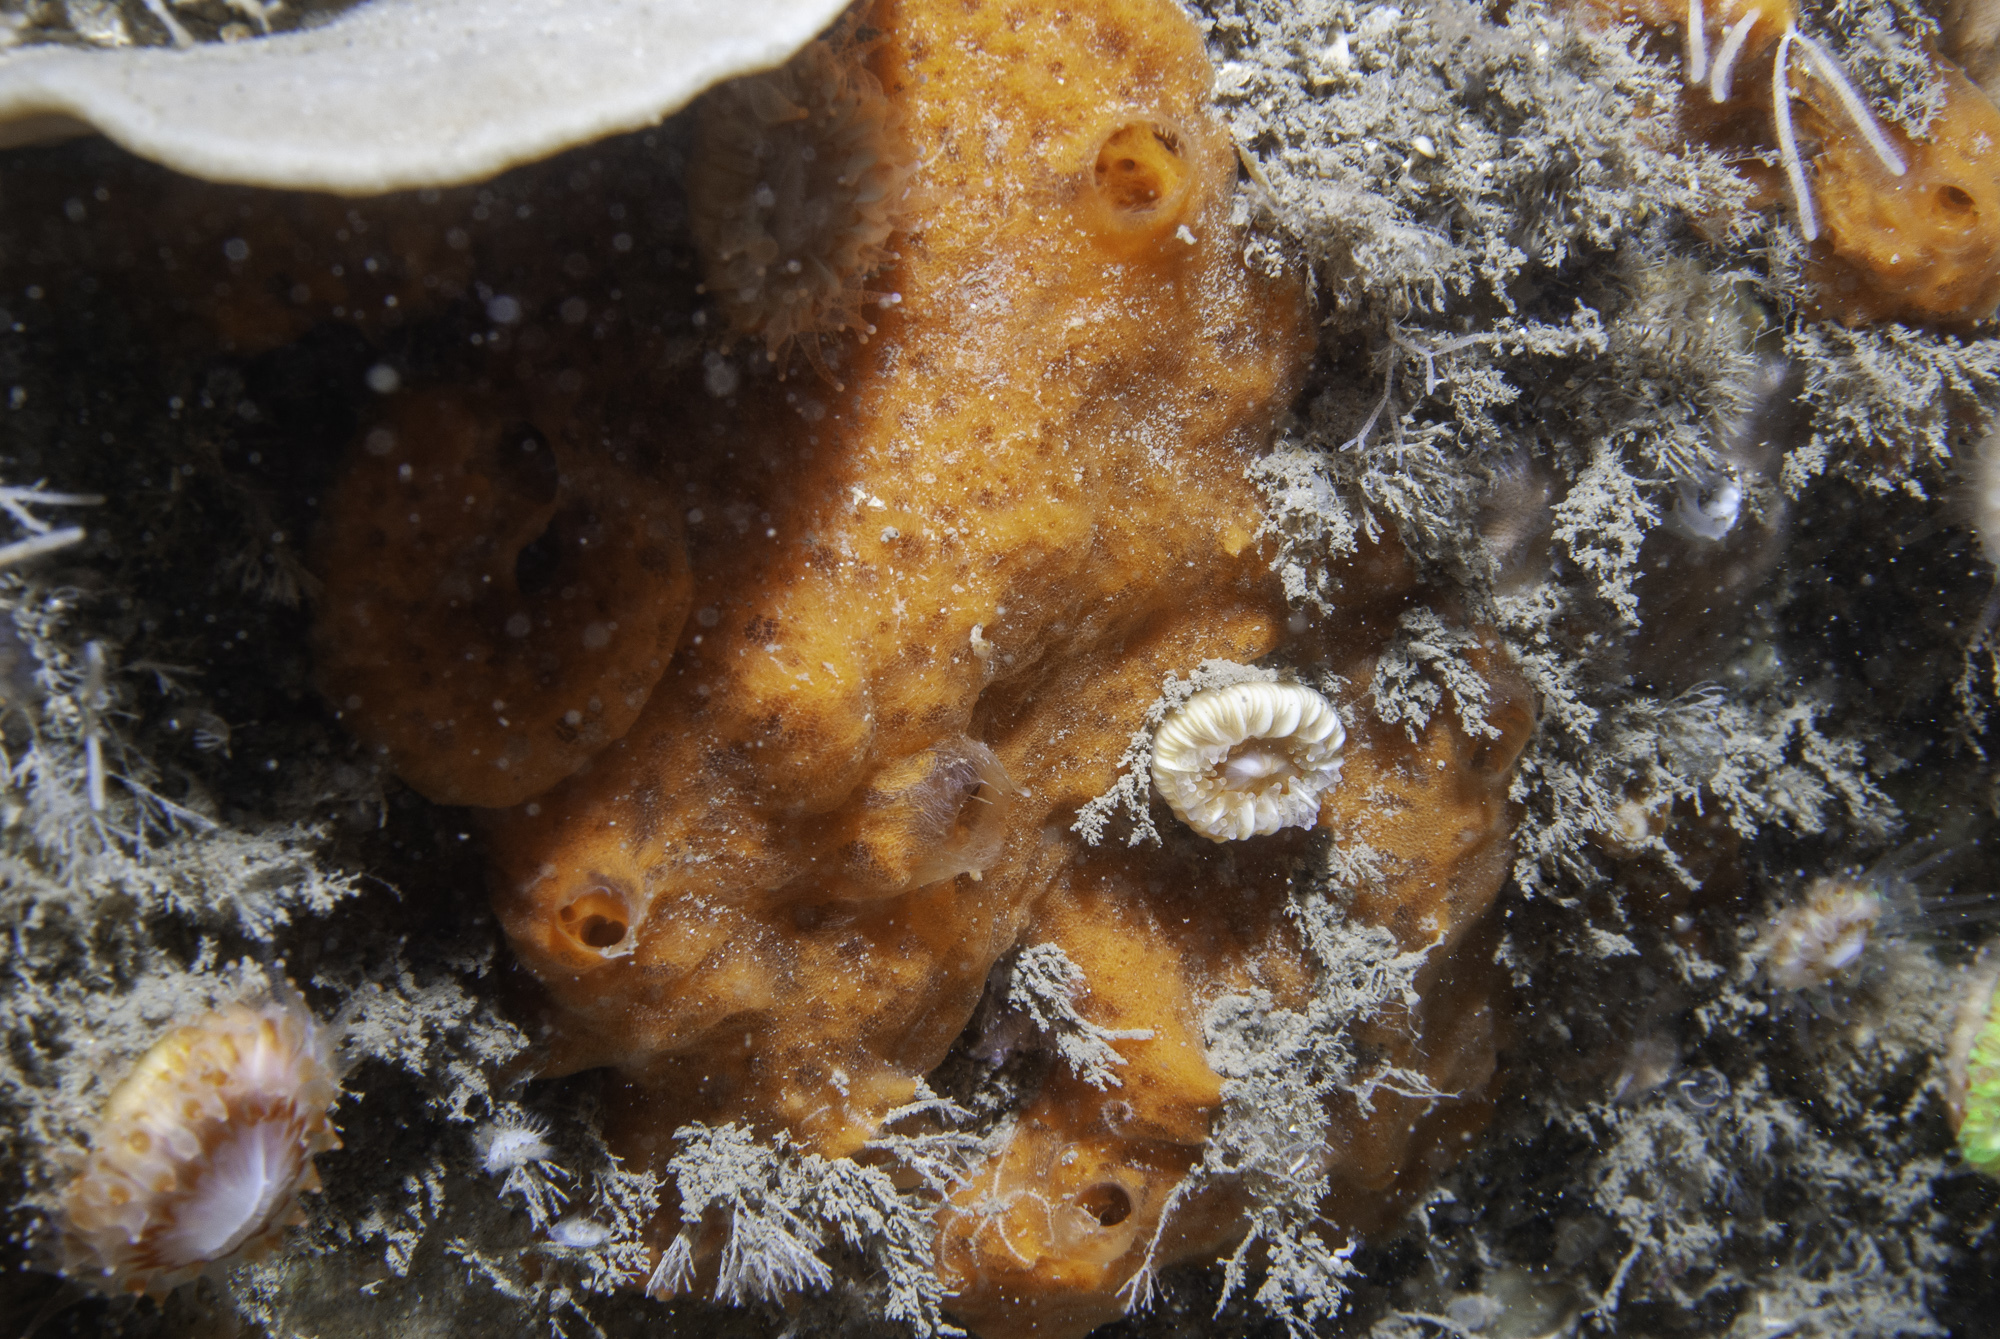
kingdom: Animalia
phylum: Porifera
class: Demospongiae
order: Poecilosclerida
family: Mycalidae
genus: Mycale
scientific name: Mycale rotalis
